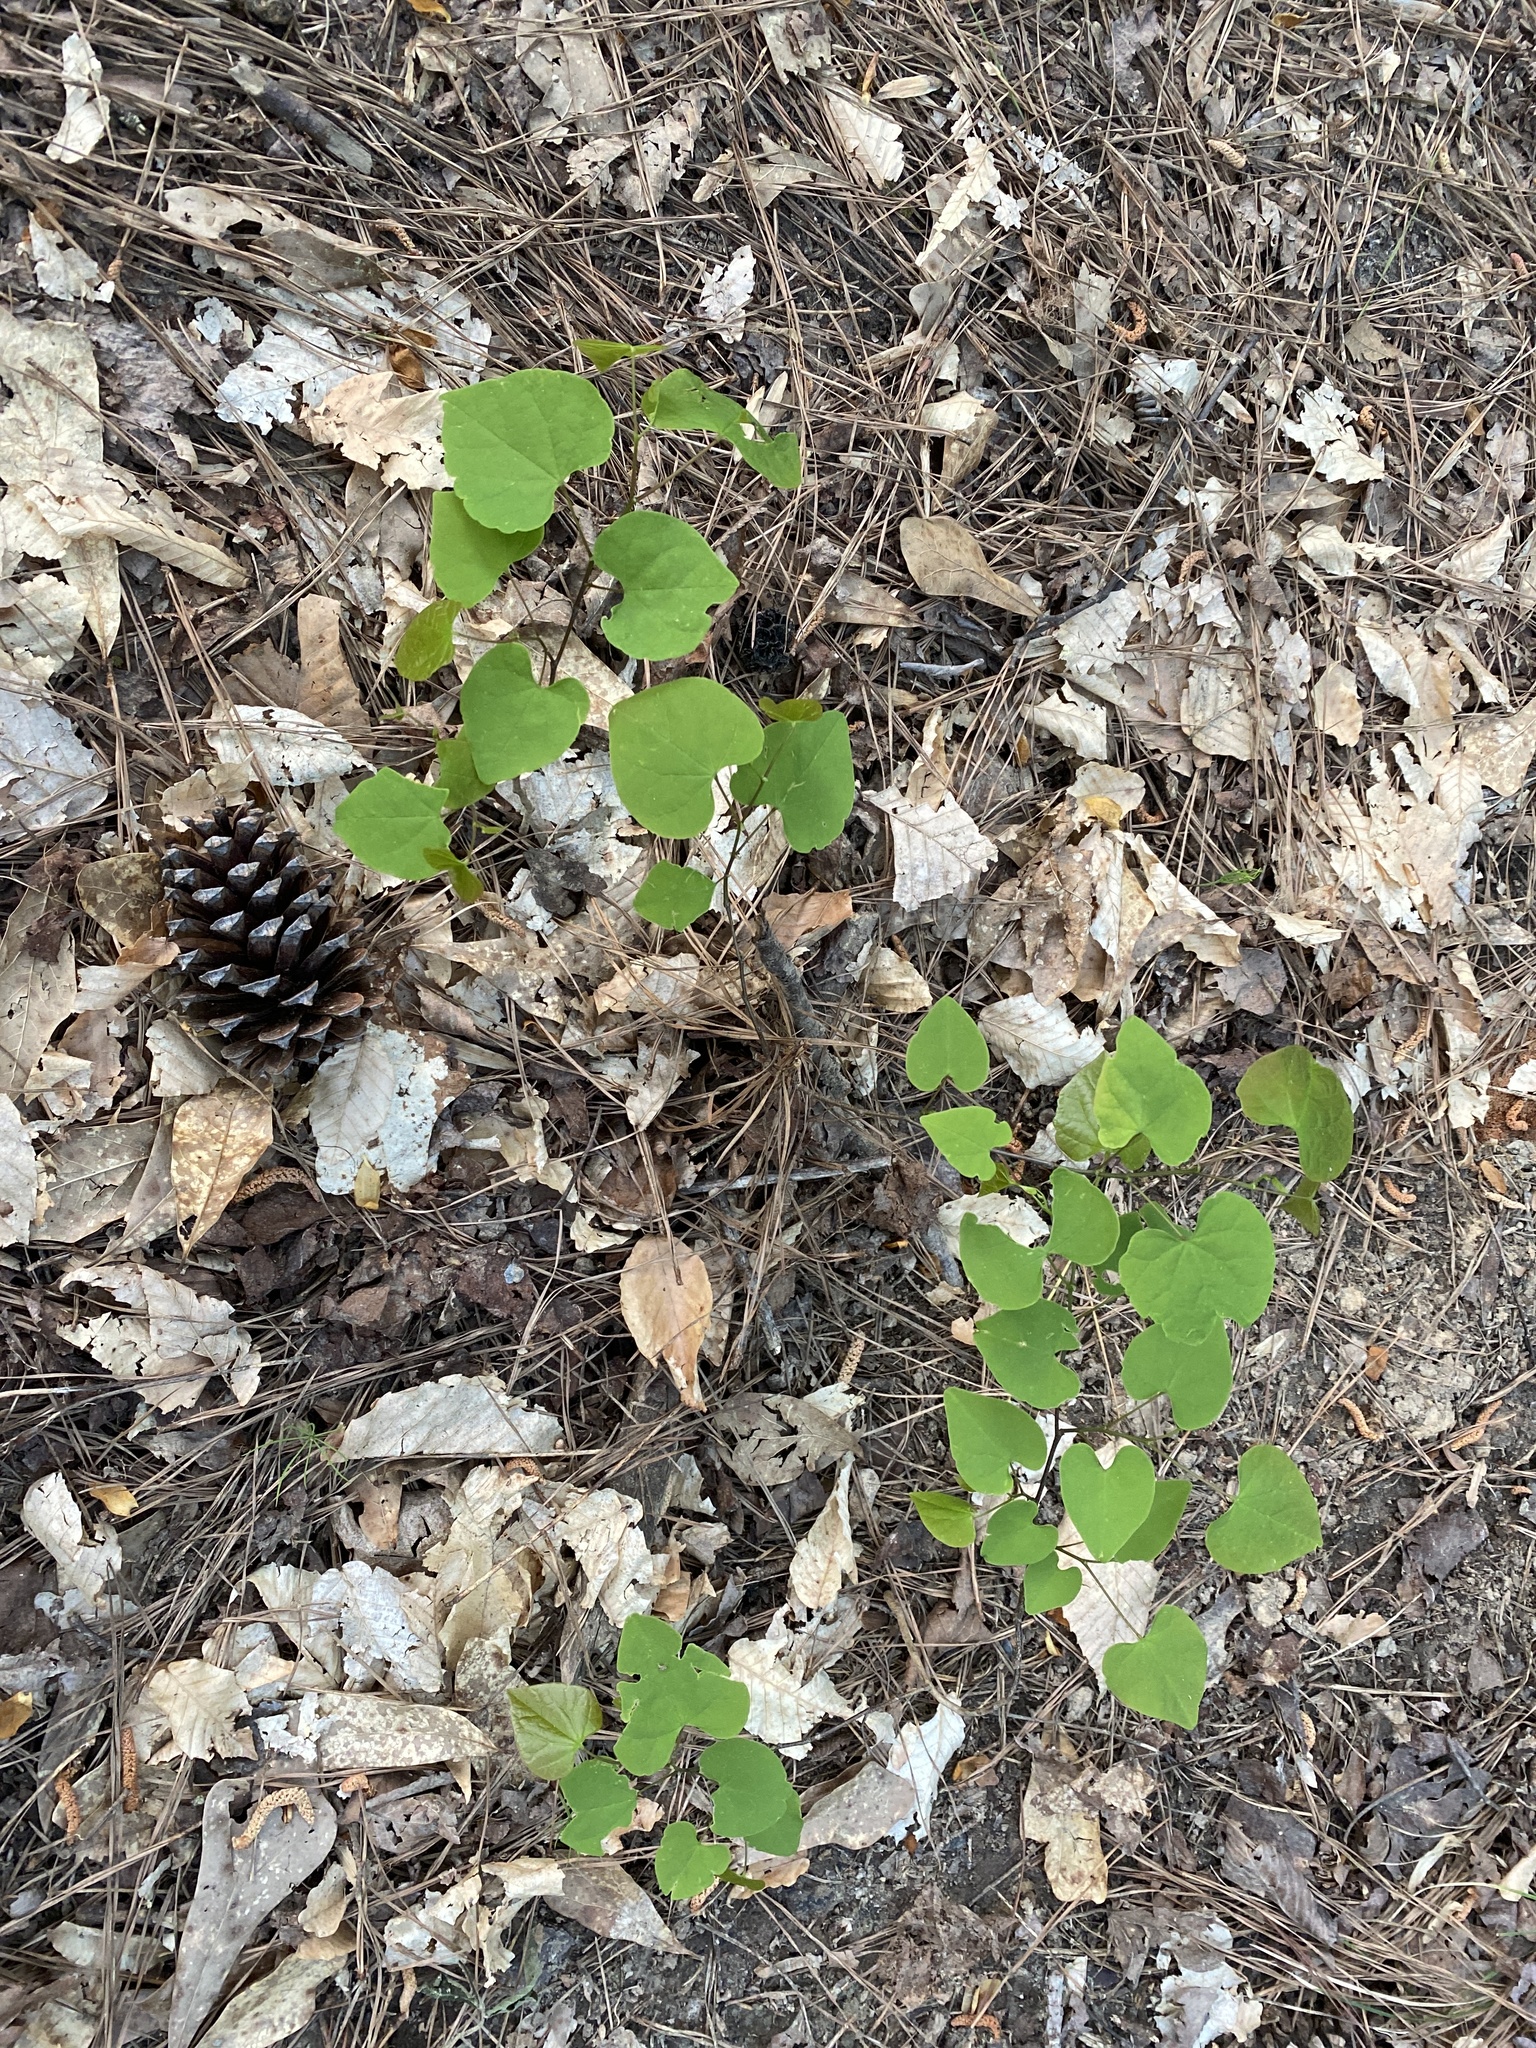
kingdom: Plantae
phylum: Tracheophyta
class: Magnoliopsida
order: Fabales
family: Fabaceae
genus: Cercis
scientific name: Cercis canadensis
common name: Eastern redbud
